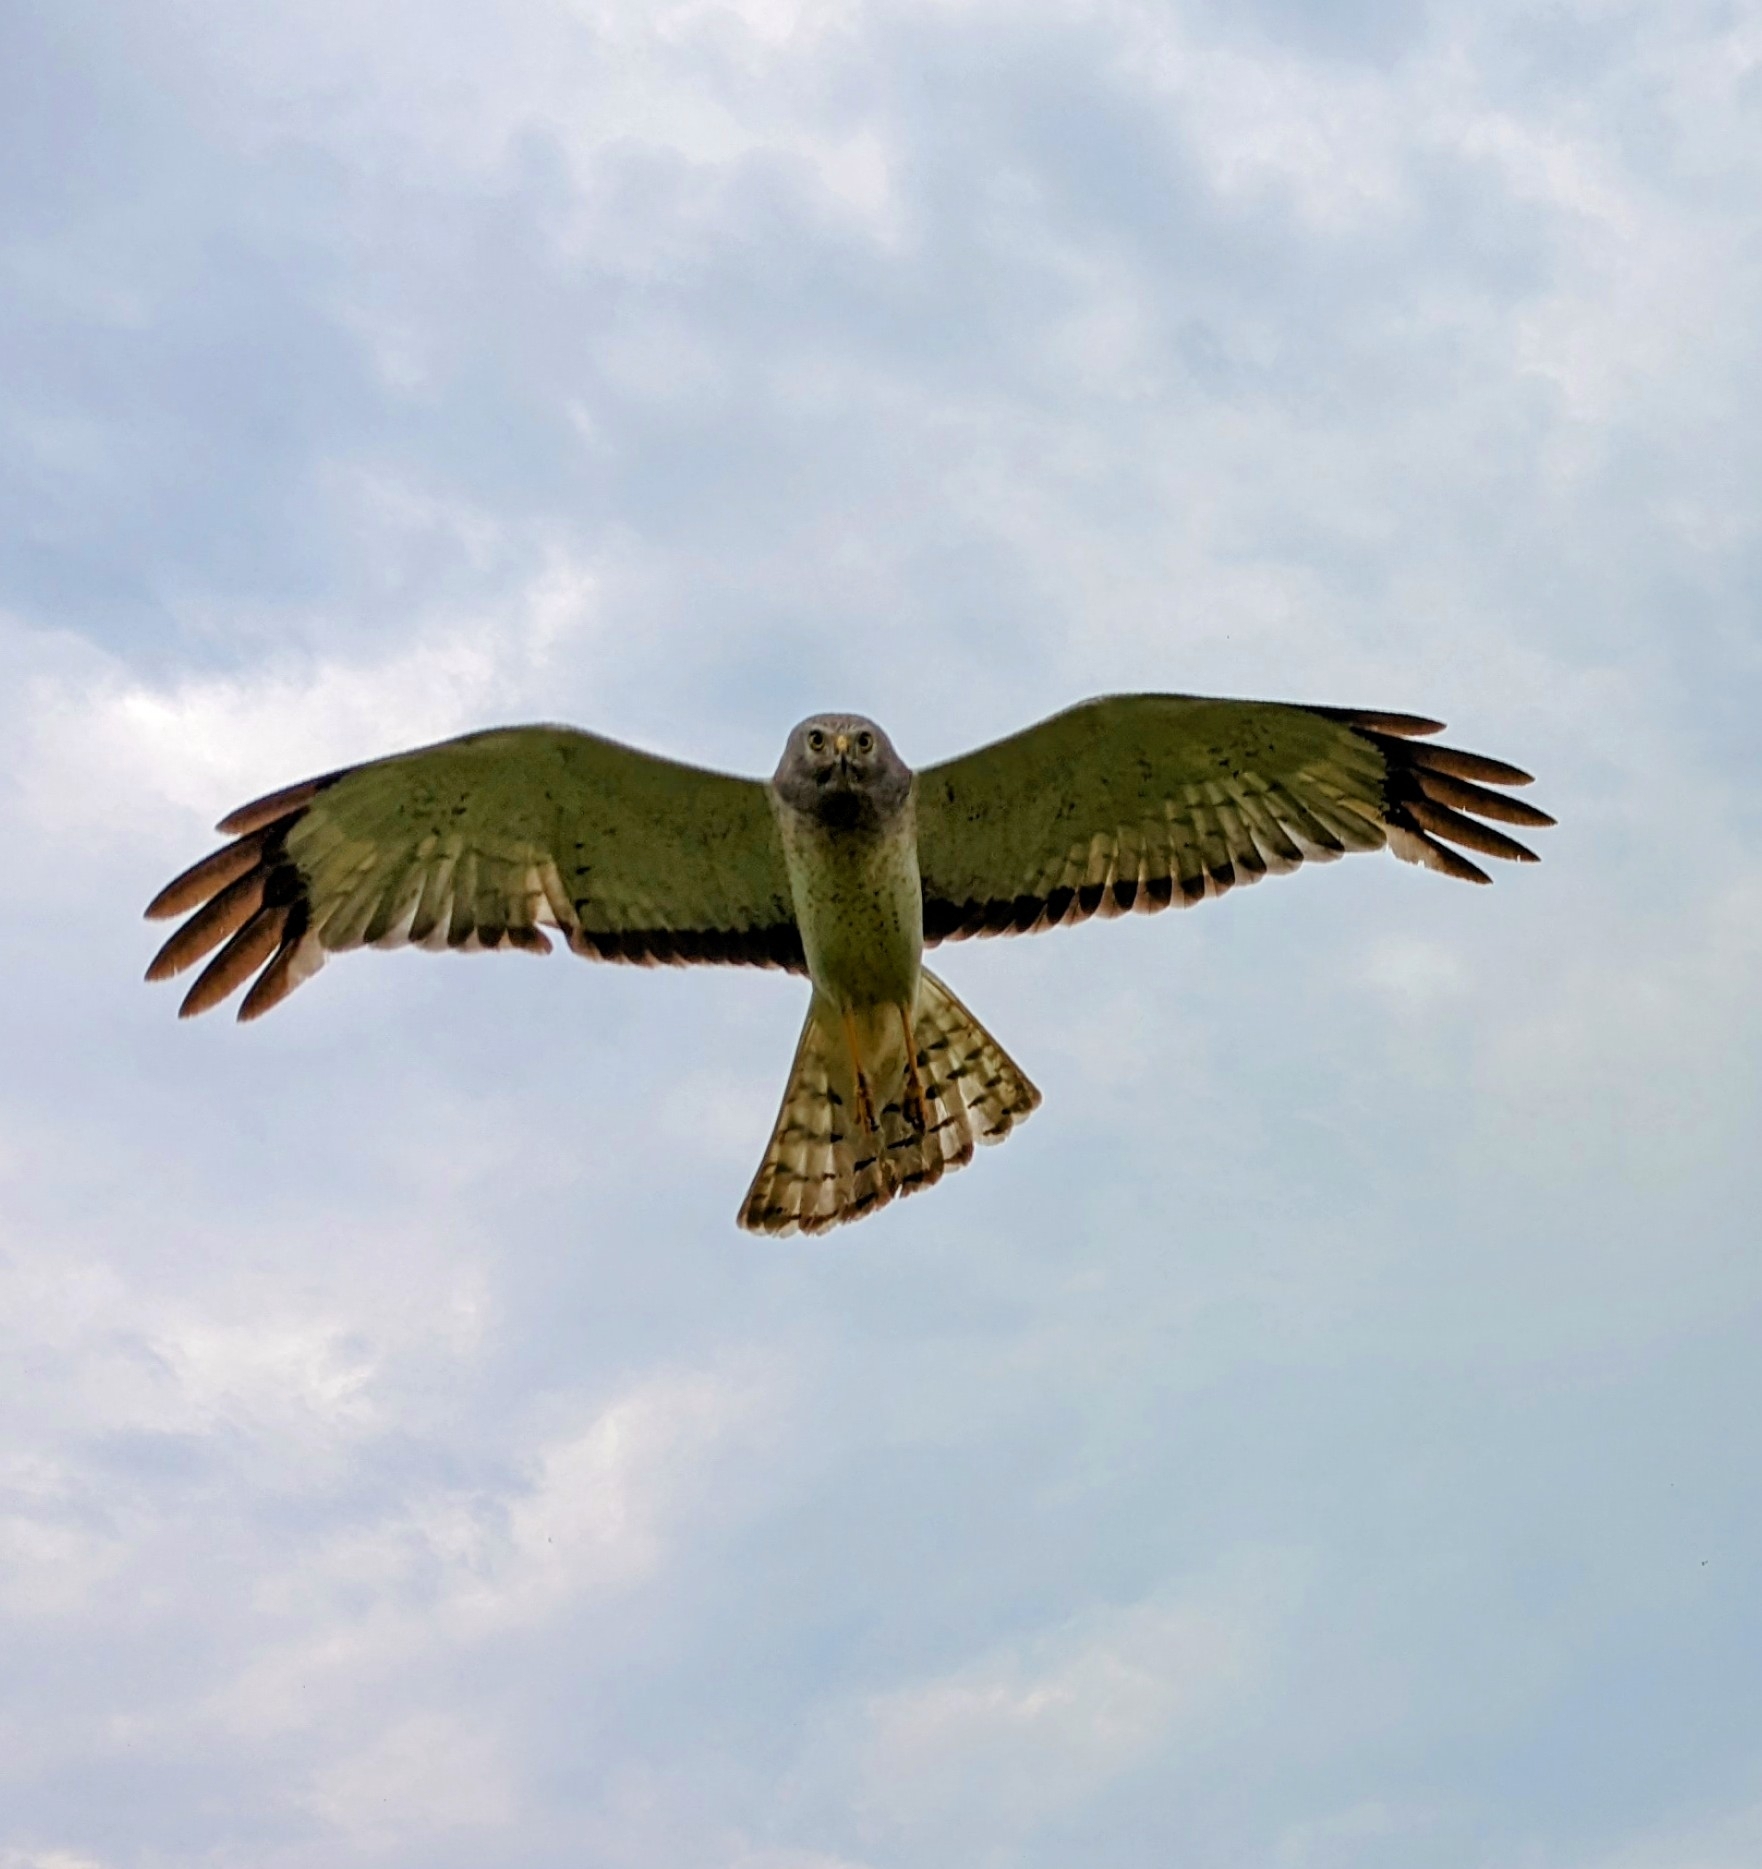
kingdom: Animalia
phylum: Chordata
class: Aves
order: Accipitriformes
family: Accipitridae
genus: Circus
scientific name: Circus cyaneus
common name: Hen harrier
